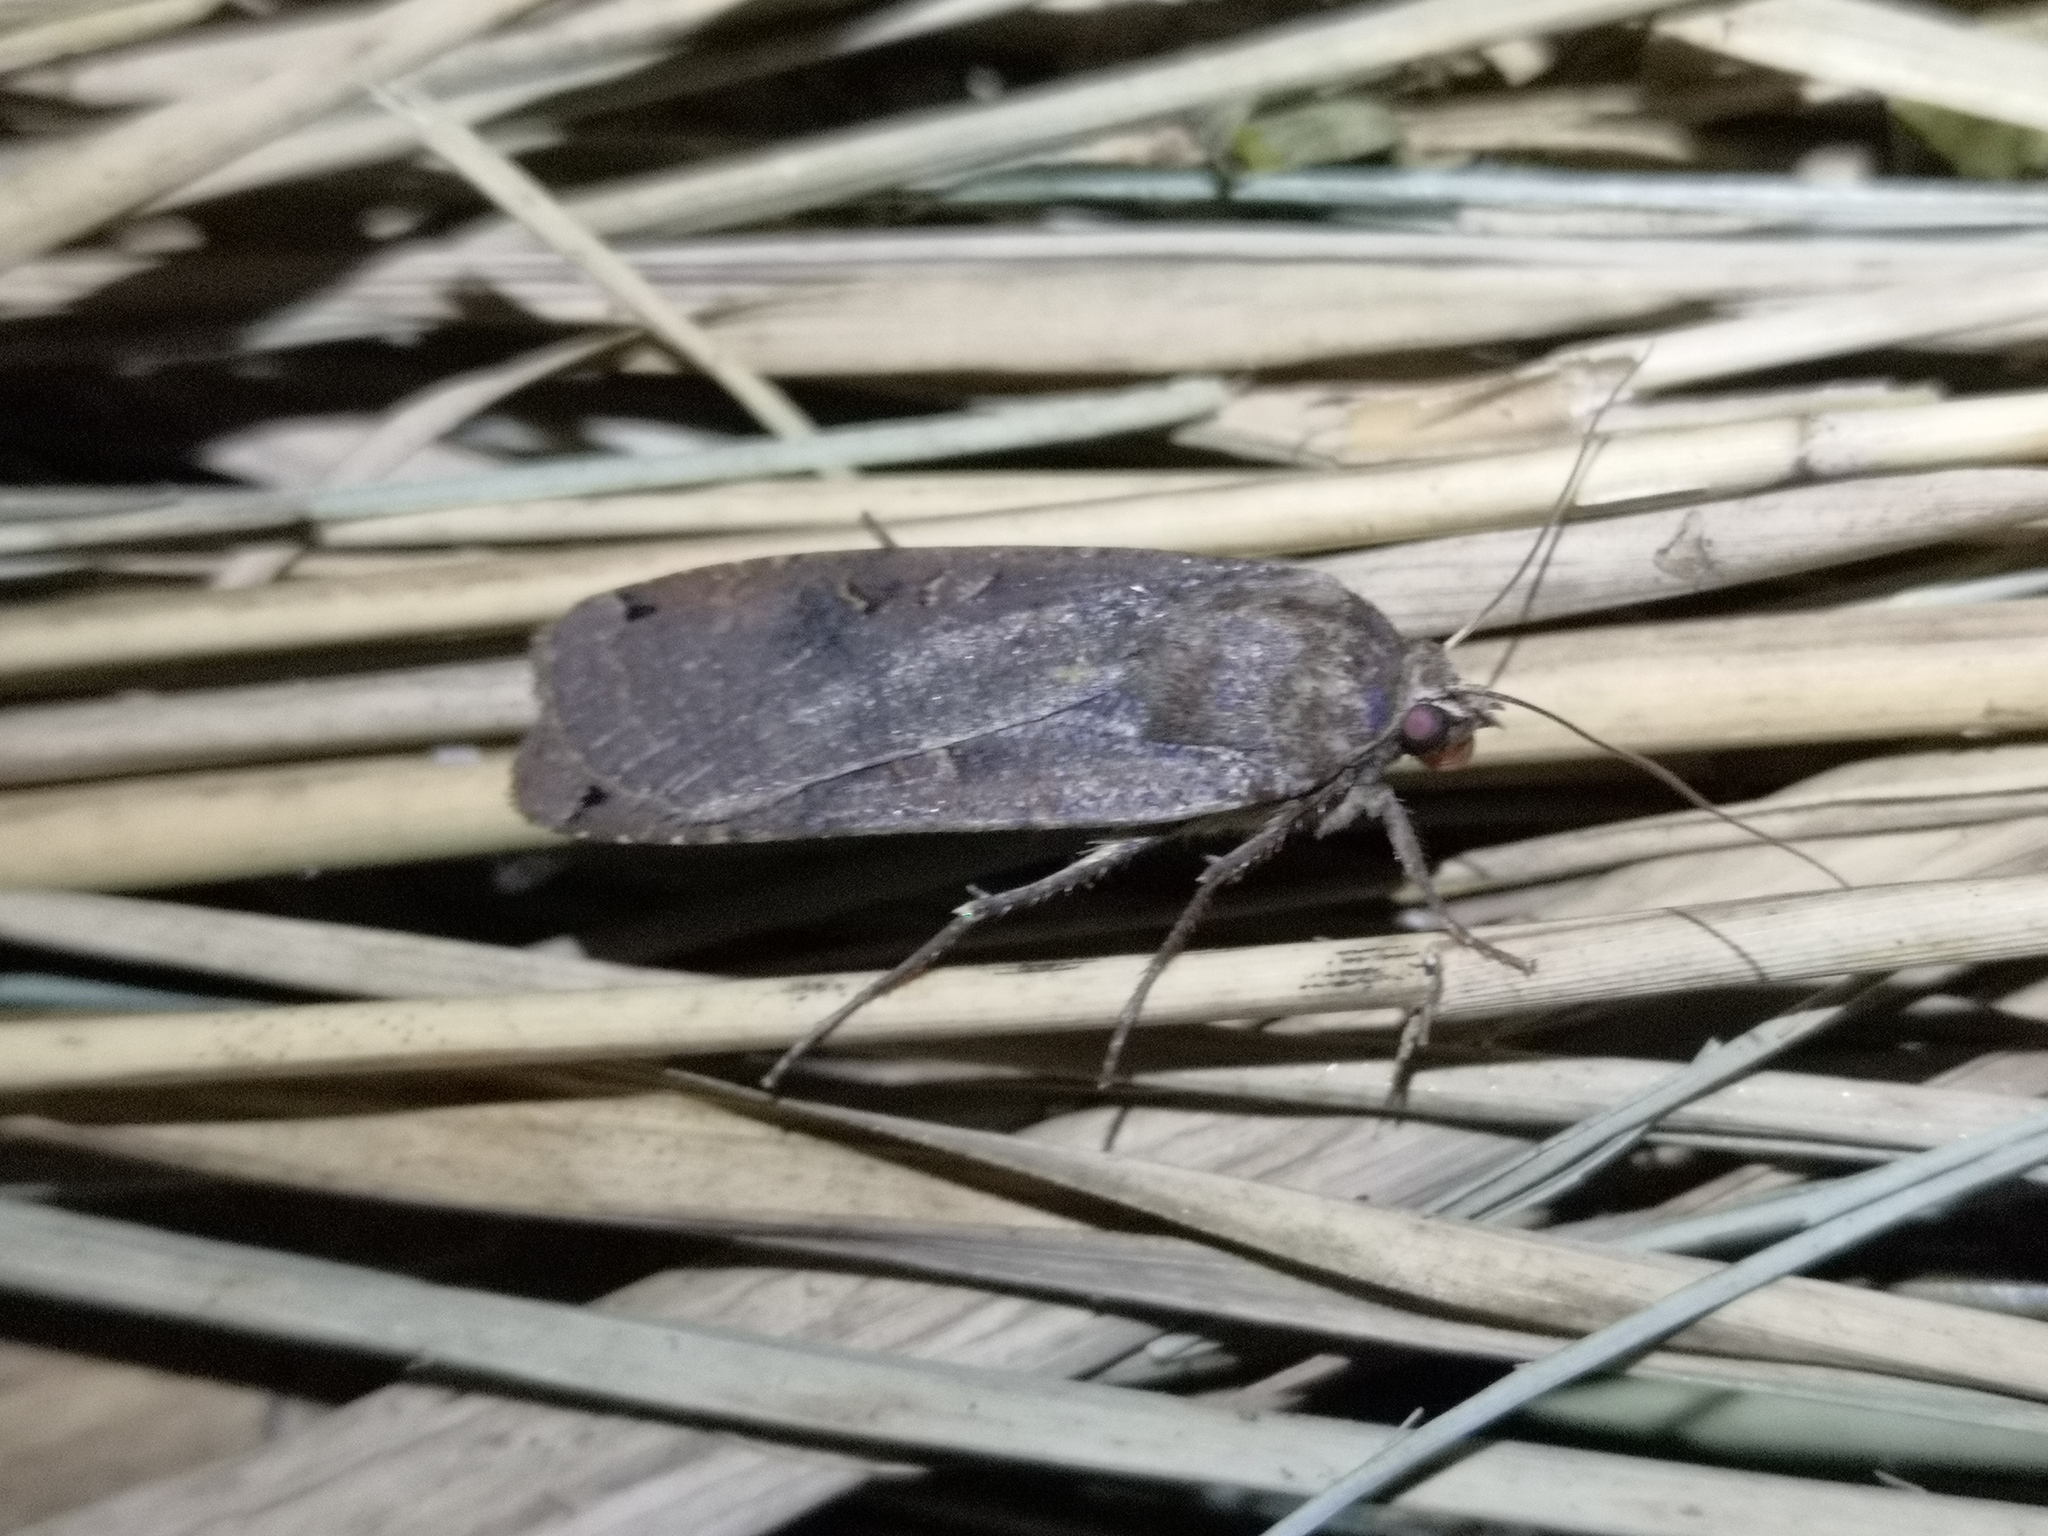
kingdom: Animalia
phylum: Arthropoda
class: Insecta
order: Lepidoptera
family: Noctuidae
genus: Noctua
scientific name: Noctua pronuba
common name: Large yellow underwing
